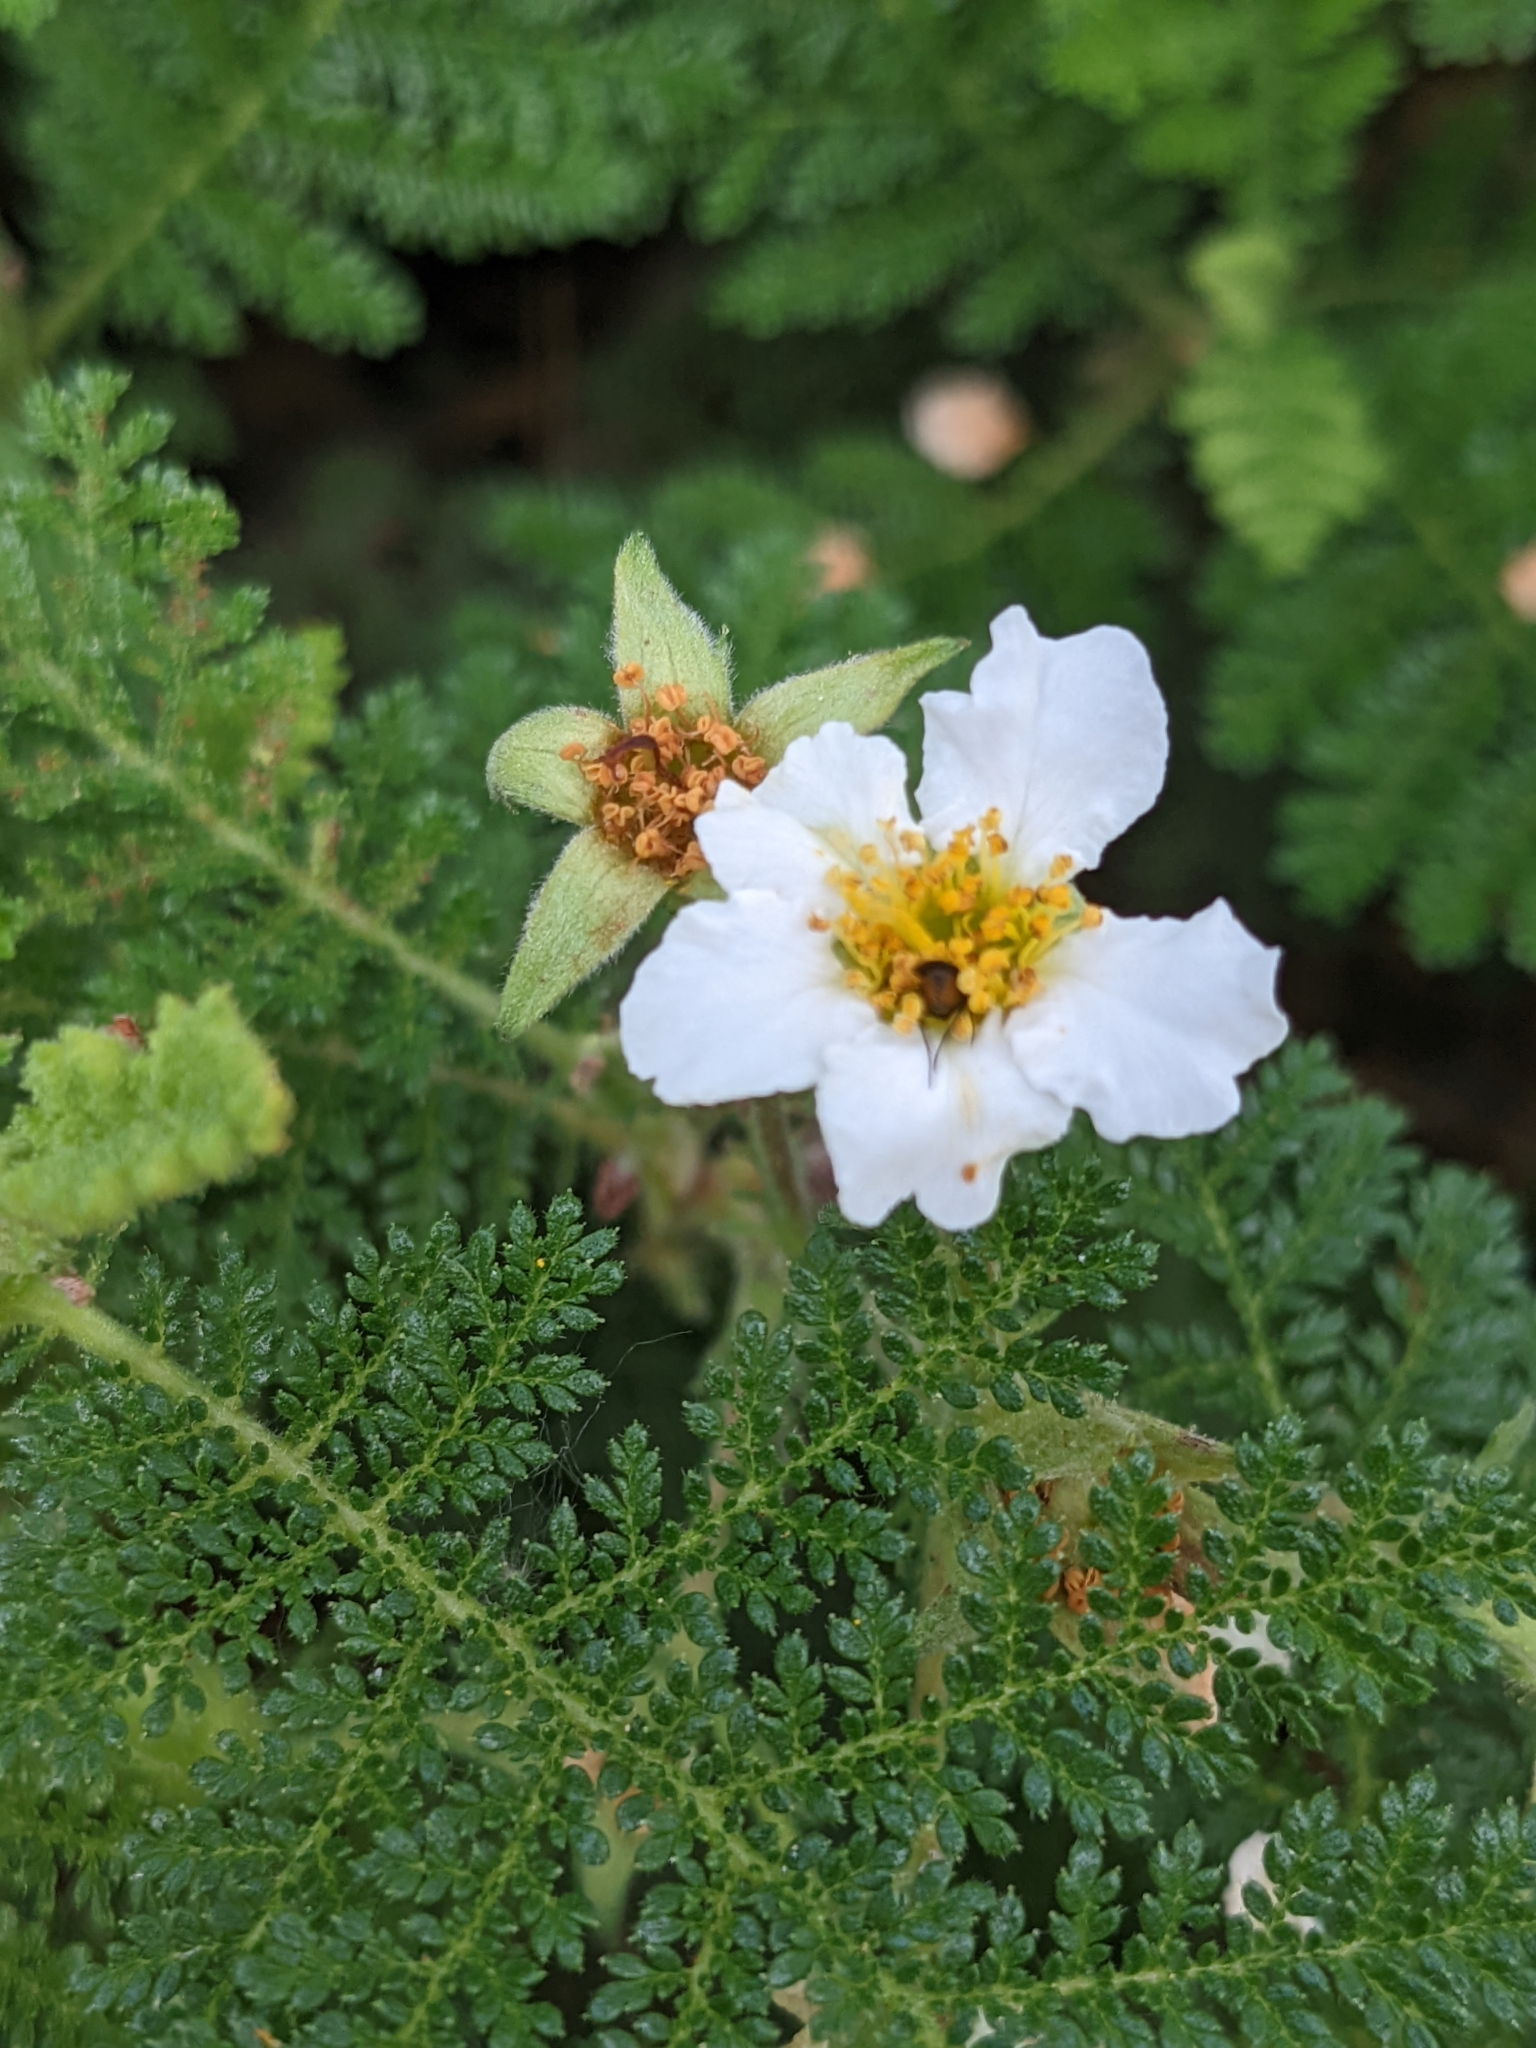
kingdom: Plantae
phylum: Tracheophyta
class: Magnoliopsida
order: Rosales
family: Rosaceae
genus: Chamaebatia
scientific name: Chamaebatia foliolosa
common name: Mountain misery
